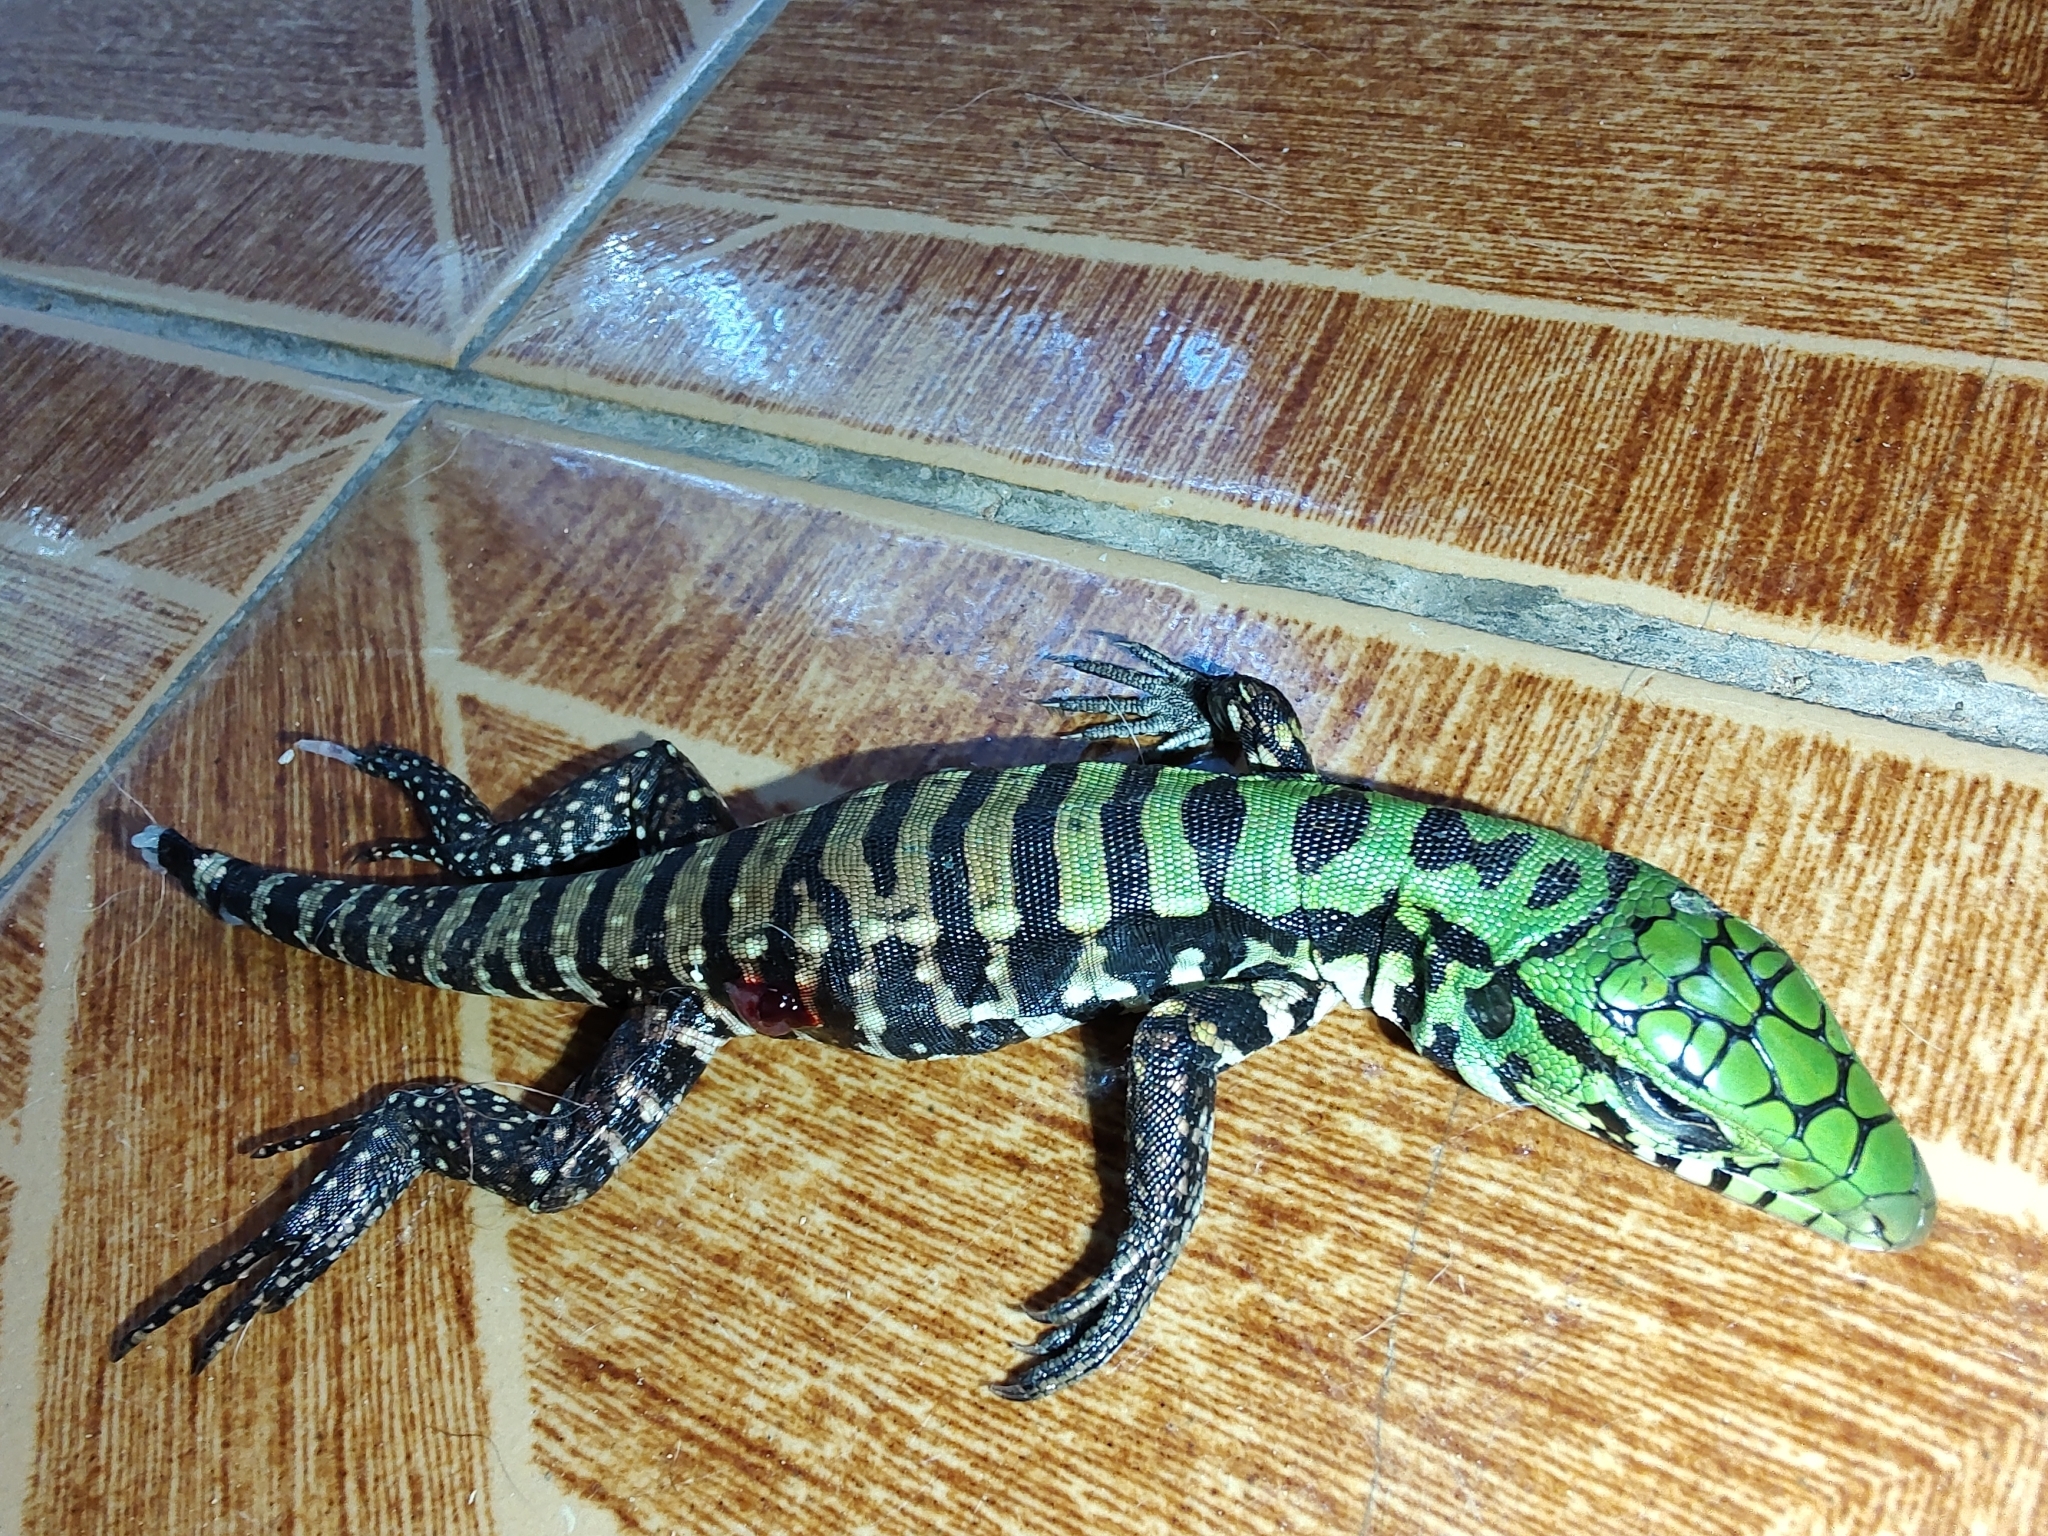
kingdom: Animalia
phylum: Chordata
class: Squamata
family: Teiidae
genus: Salvator
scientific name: Salvator merianae
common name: Argentine black and white tegu
